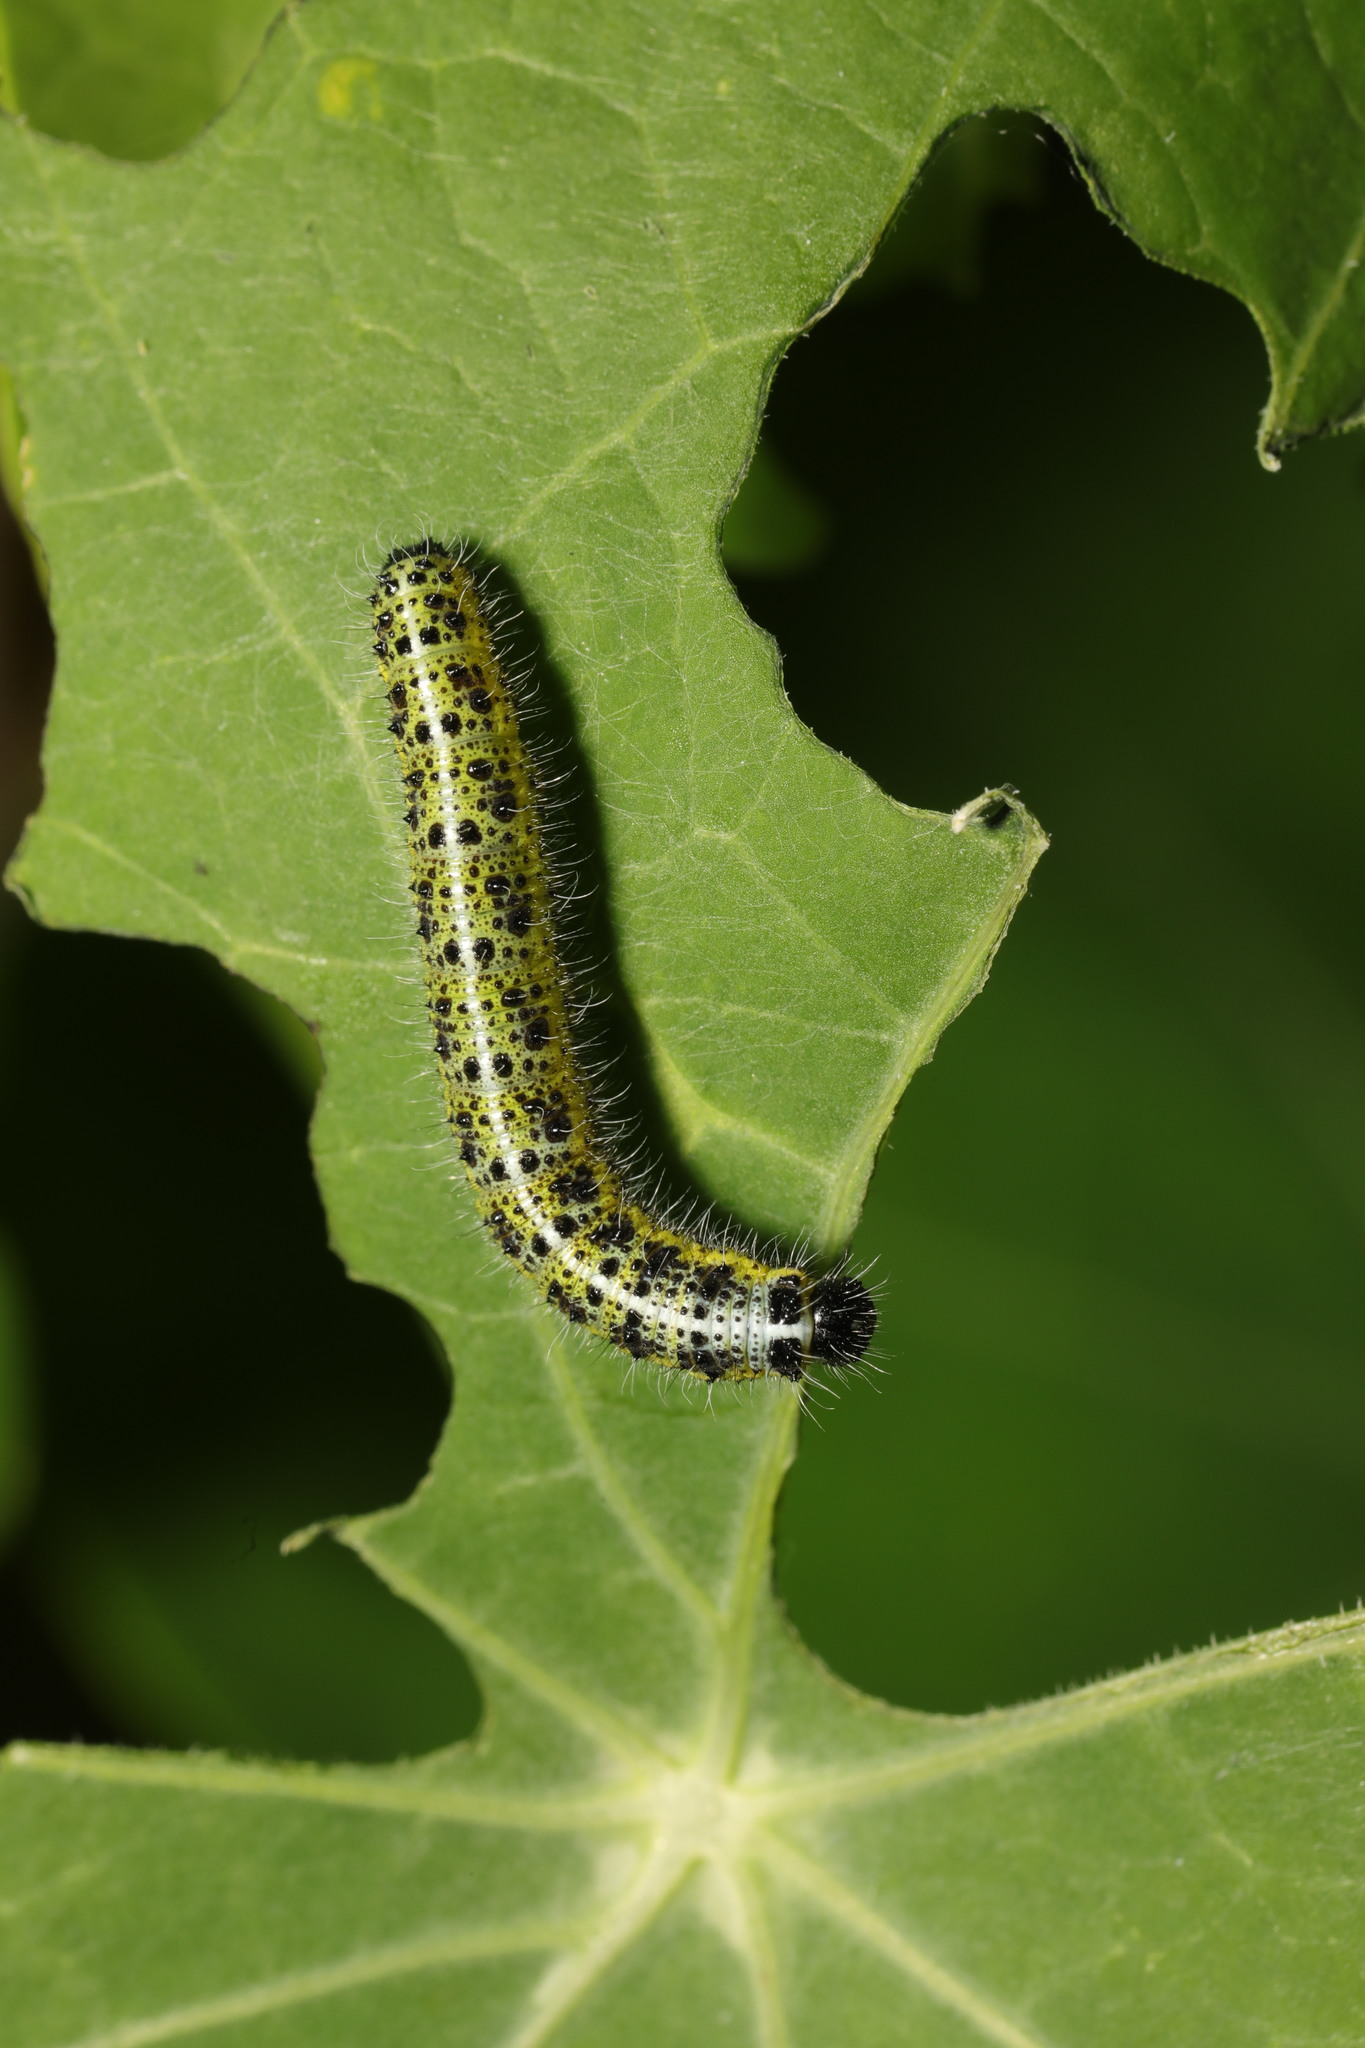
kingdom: Animalia
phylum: Arthropoda
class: Insecta
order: Lepidoptera
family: Pieridae
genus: Pieris
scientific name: Pieris brassicae
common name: Large white
